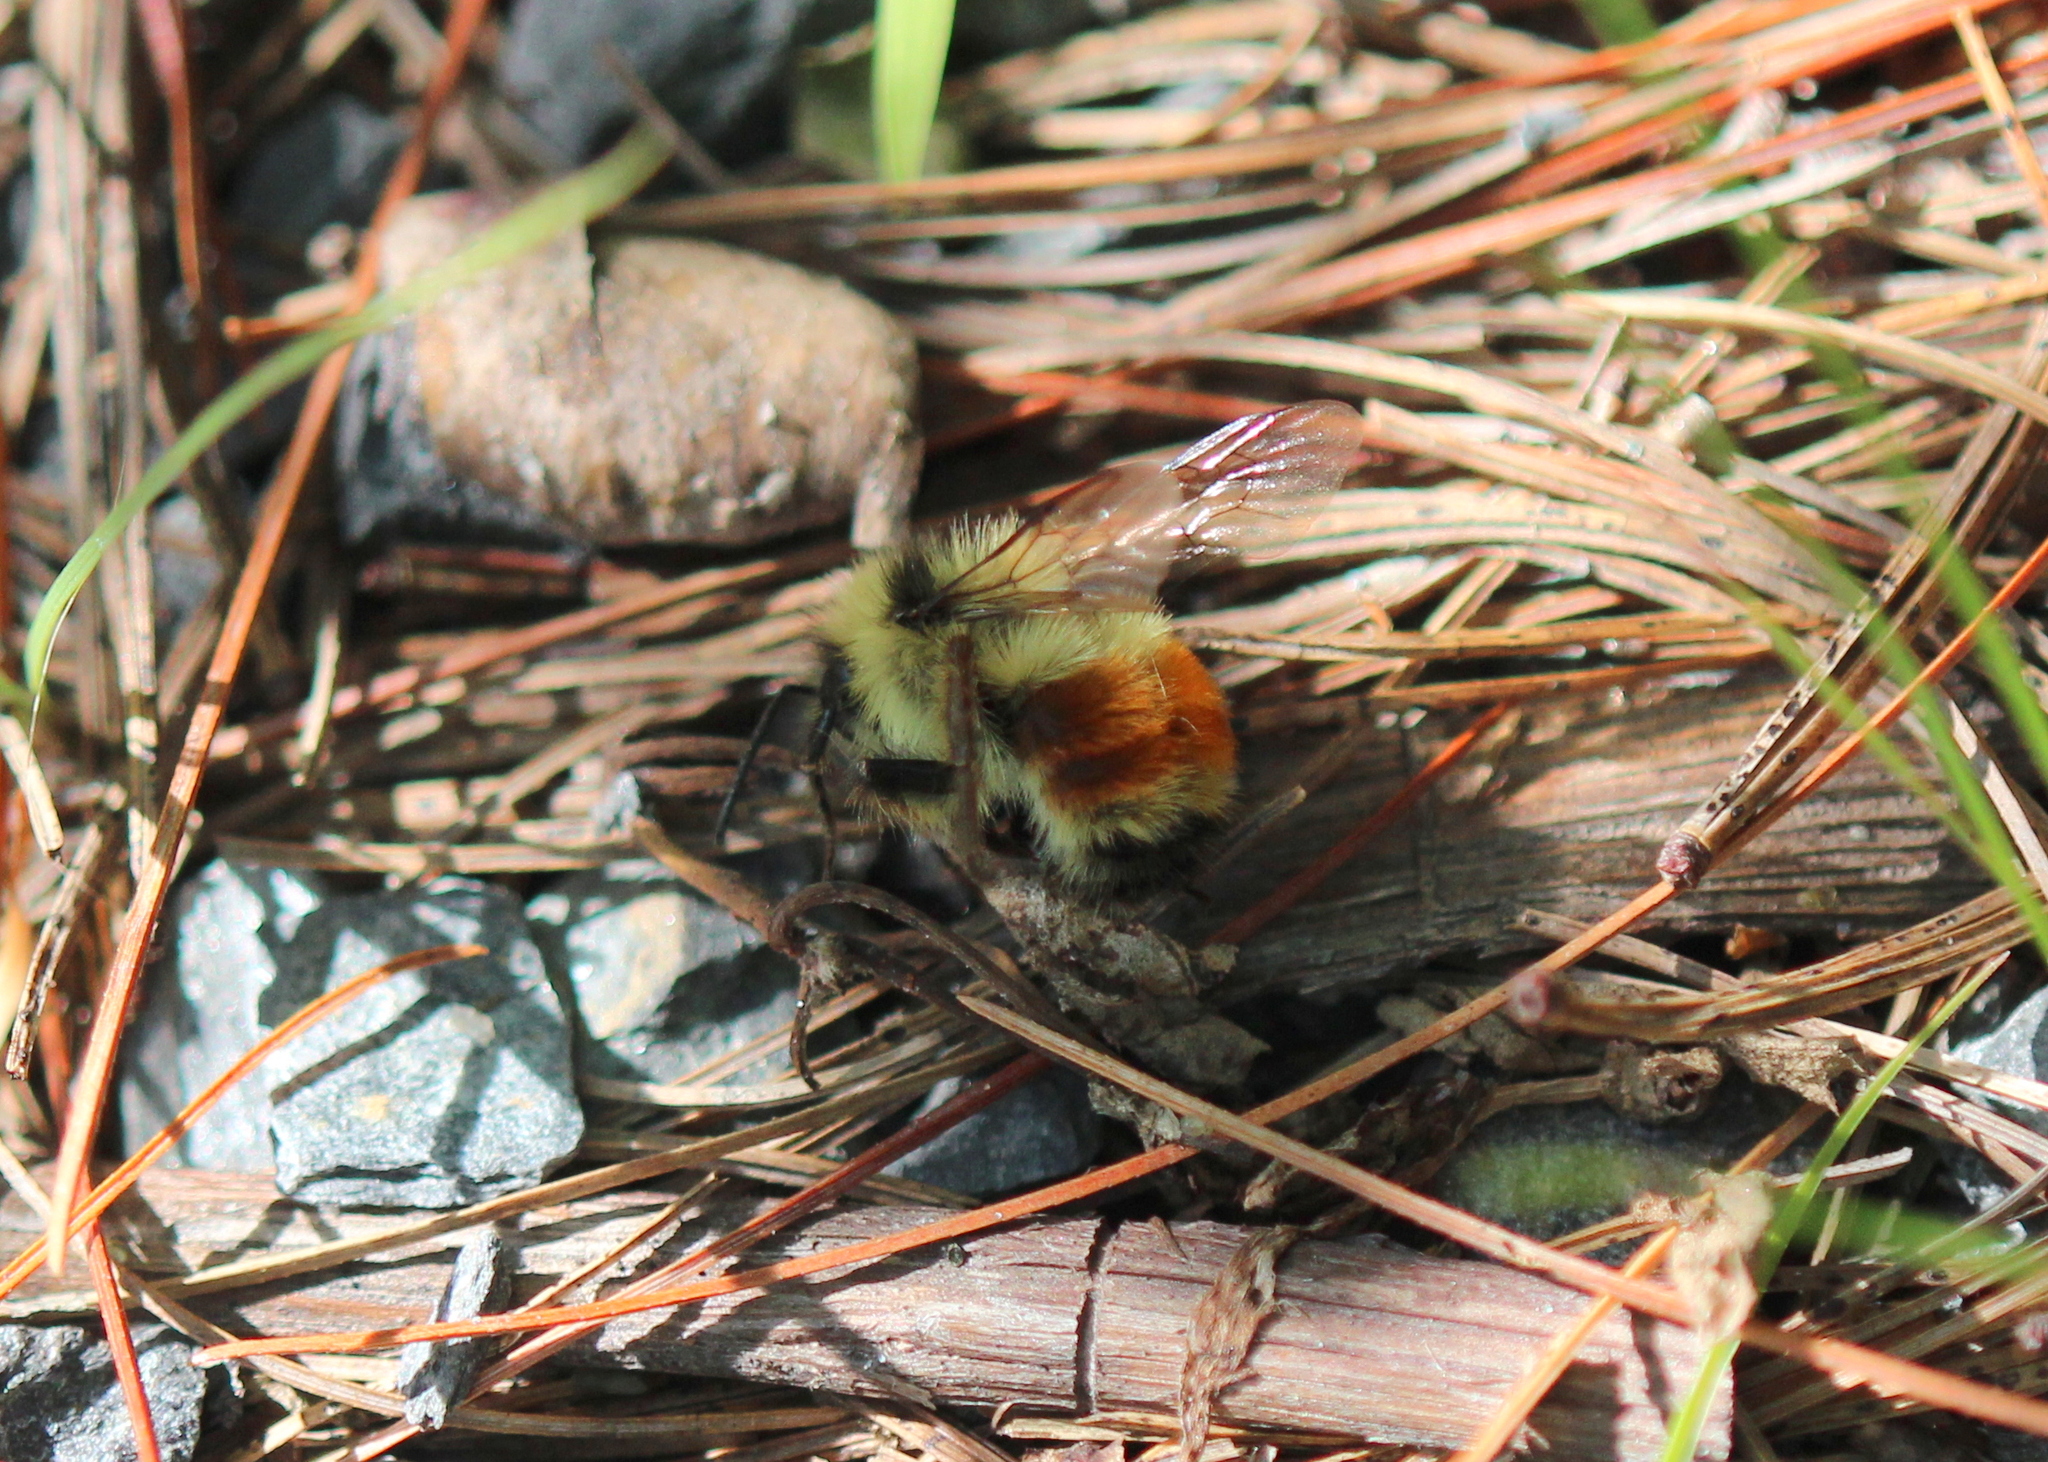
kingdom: Animalia
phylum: Arthropoda
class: Insecta
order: Hymenoptera
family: Apidae
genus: Bombus
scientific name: Bombus ternarius
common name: Tri-colored bumble bee
